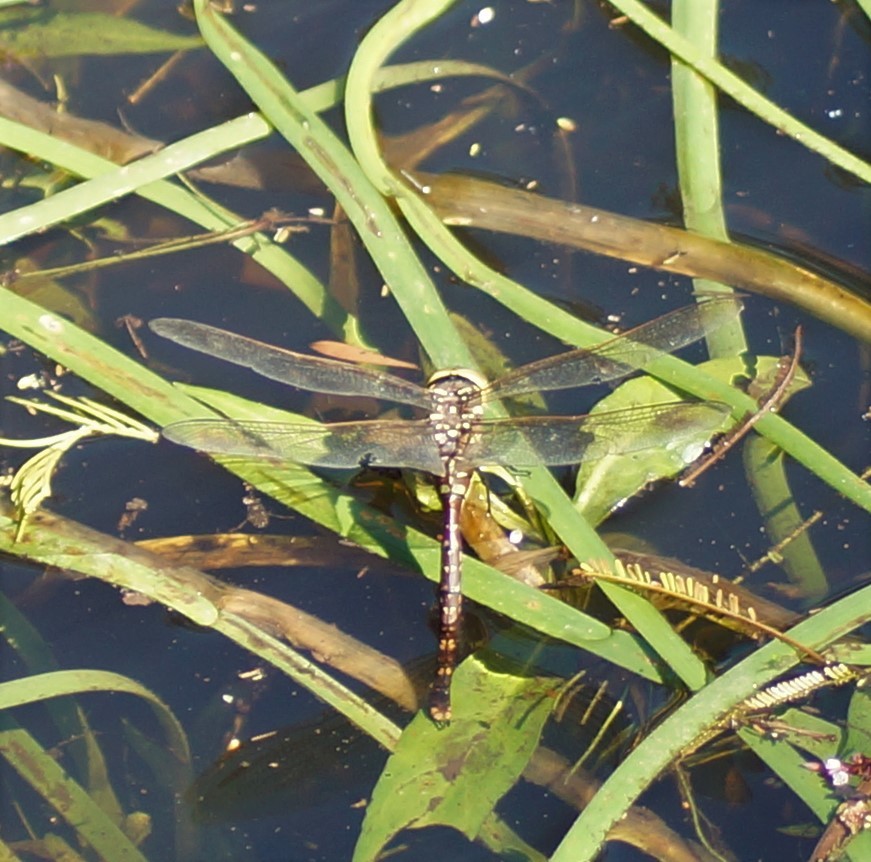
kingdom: Animalia
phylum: Arthropoda
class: Insecta
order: Odonata
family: Aeshnidae
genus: Aeshna
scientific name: Aeshna brevistyla
